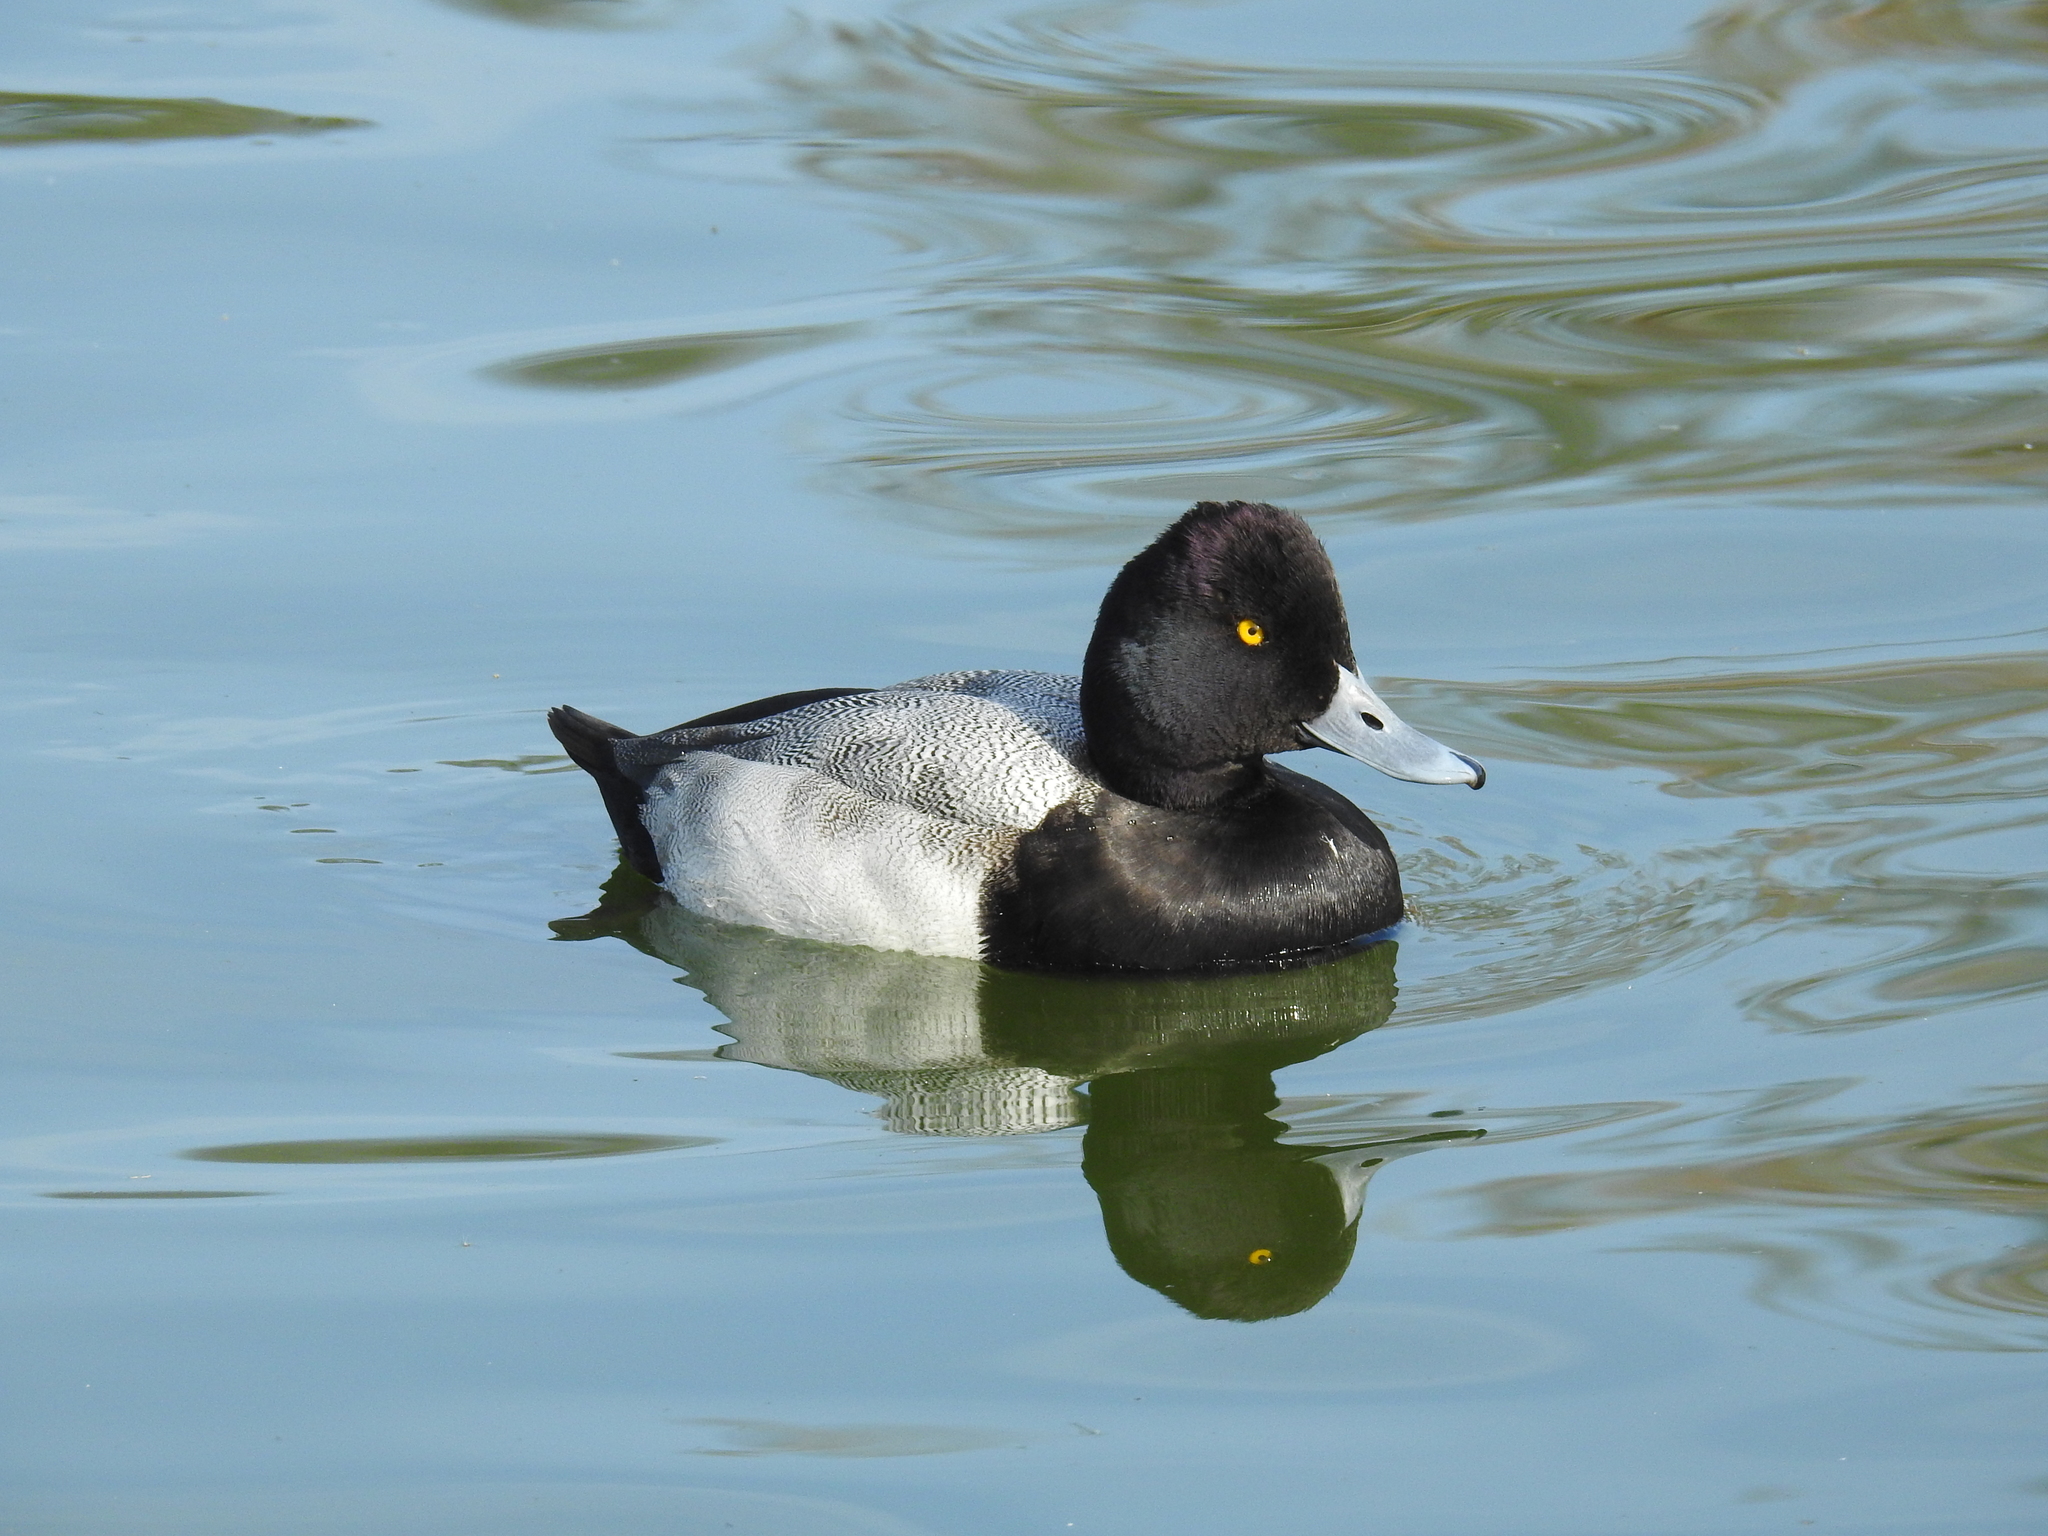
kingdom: Animalia
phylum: Chordata
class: Aves
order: Anseriformes
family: Anatidae
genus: Aythya
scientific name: Aythya affinis
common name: Lesser scaup
